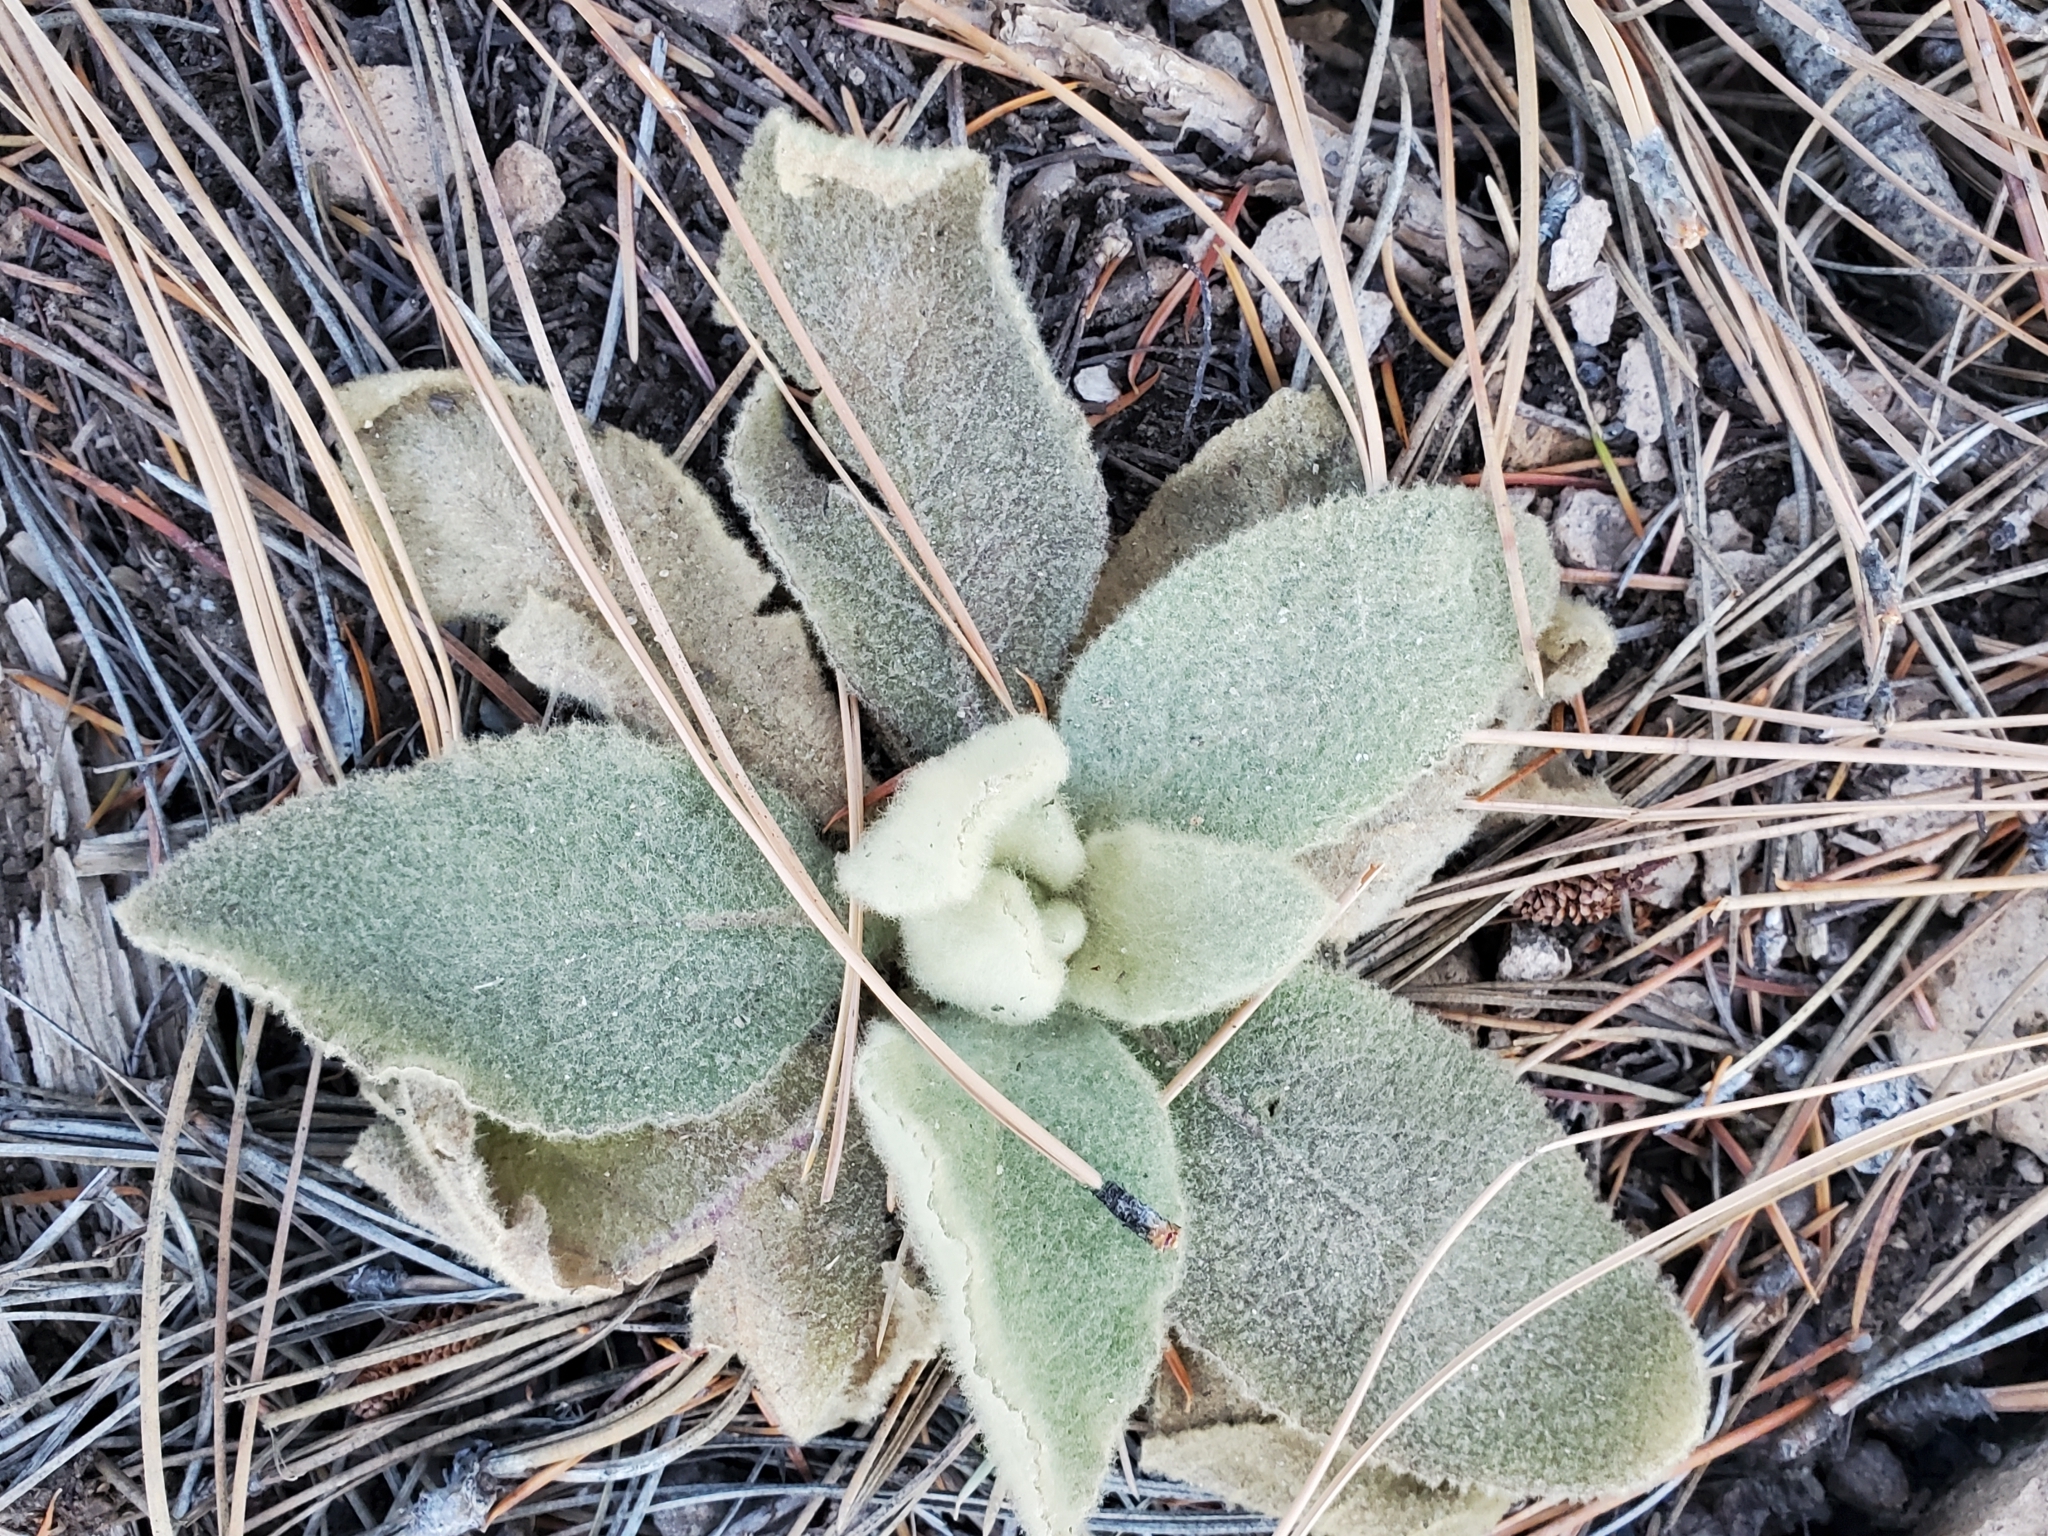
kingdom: Plantae
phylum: Tracheophyta
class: Magnoliopsida
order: Lamiales
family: Scrophulariaceae
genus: Verbascum
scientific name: Verbascum thapsus
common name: Common mullein
